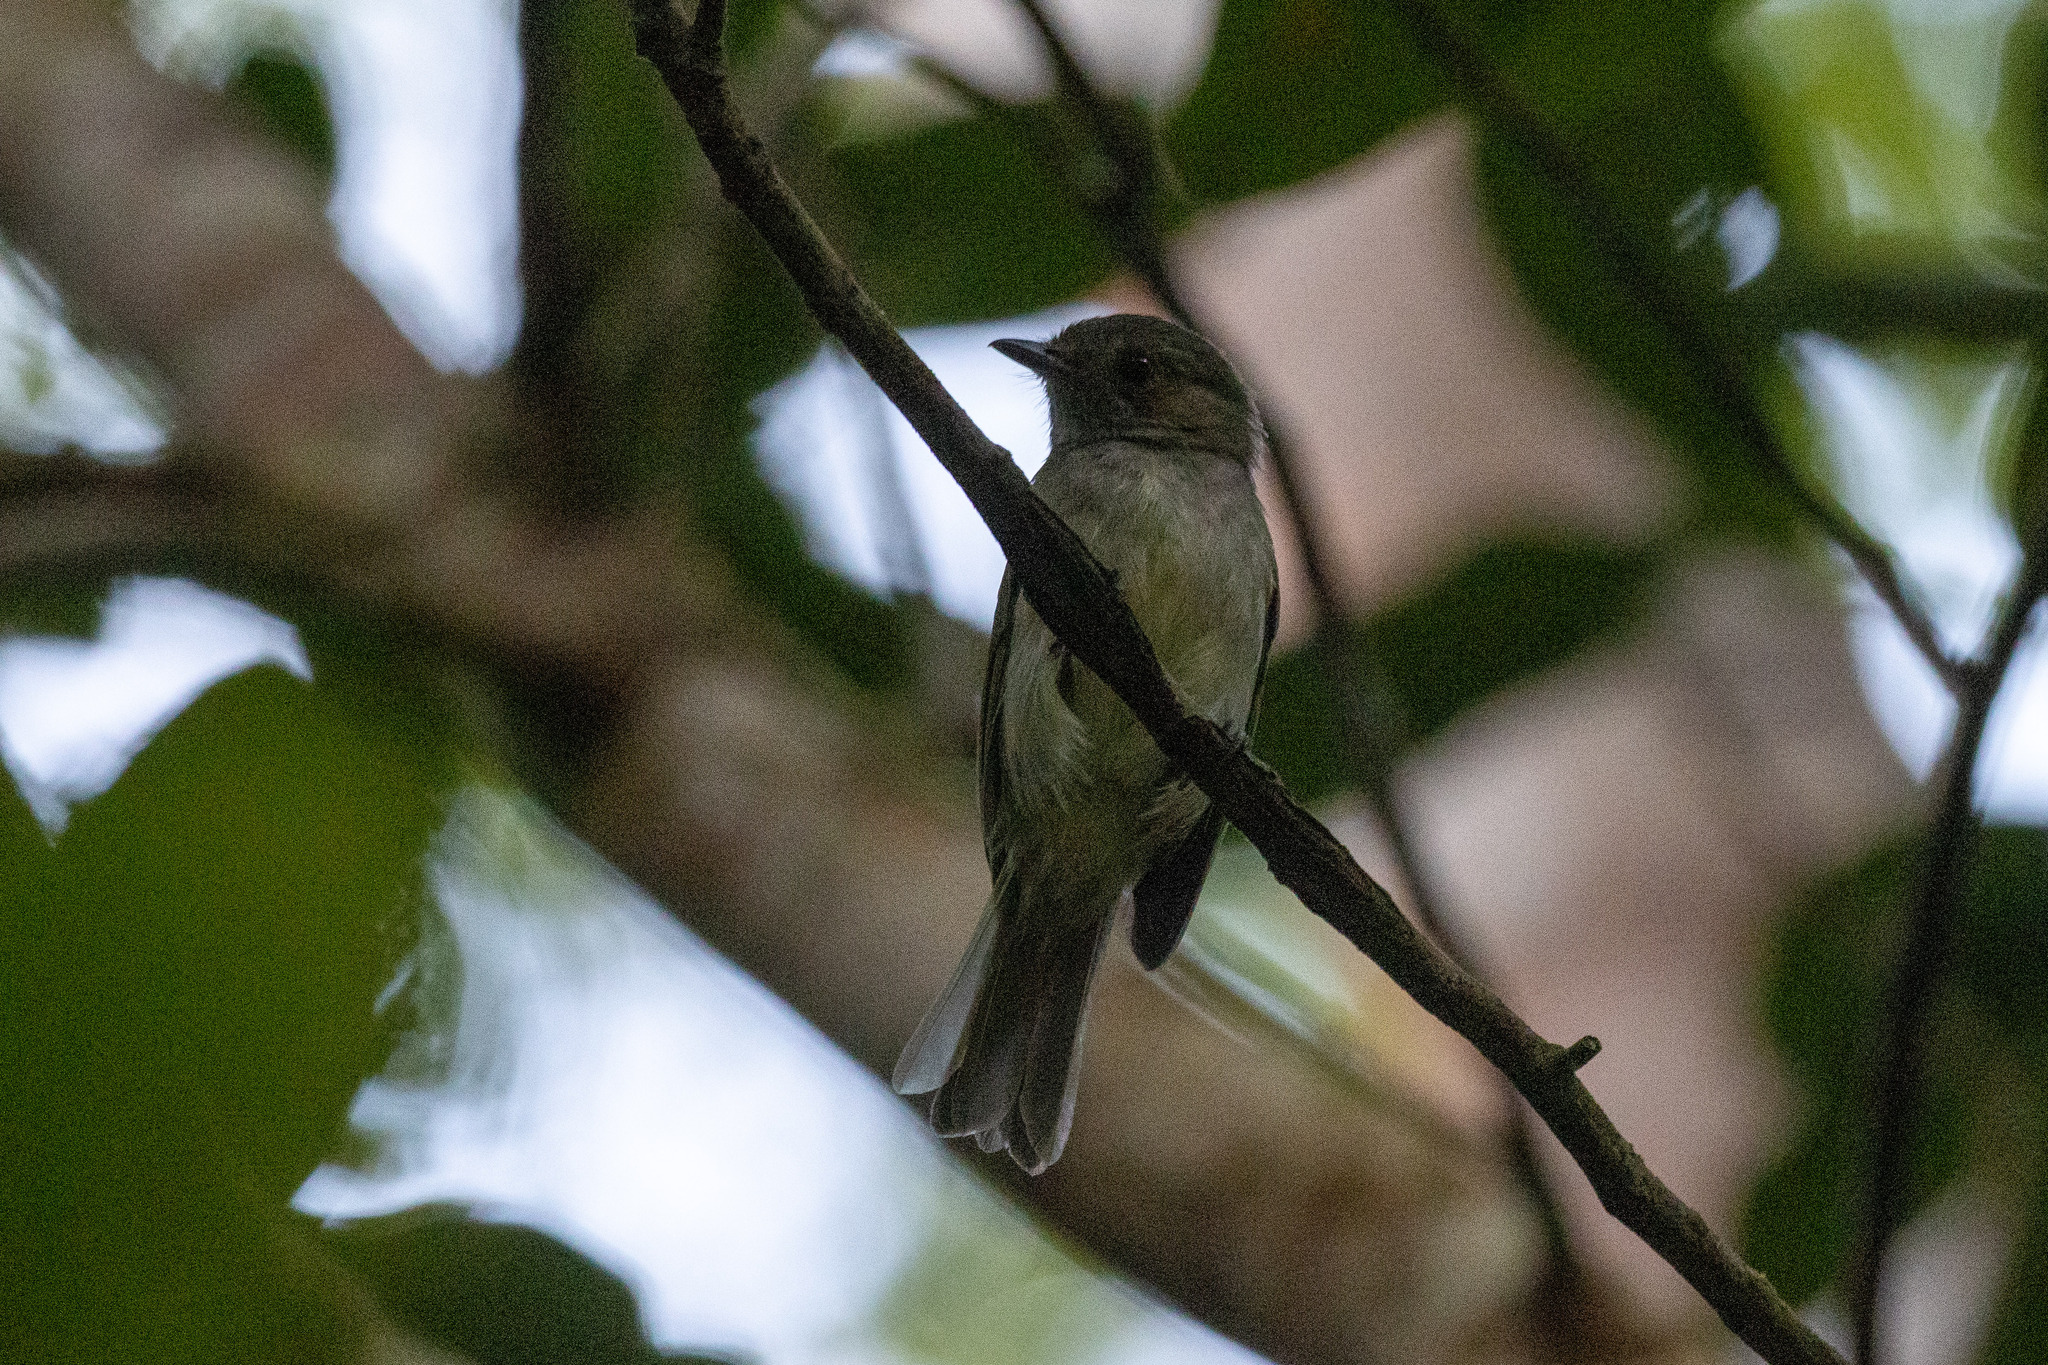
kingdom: Animalia
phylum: Chordata
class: Aves
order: Passeriformes
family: Pipridae
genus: Neopelma
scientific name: Neopelma pallescens
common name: Pale-bellied tyrant-manakin
